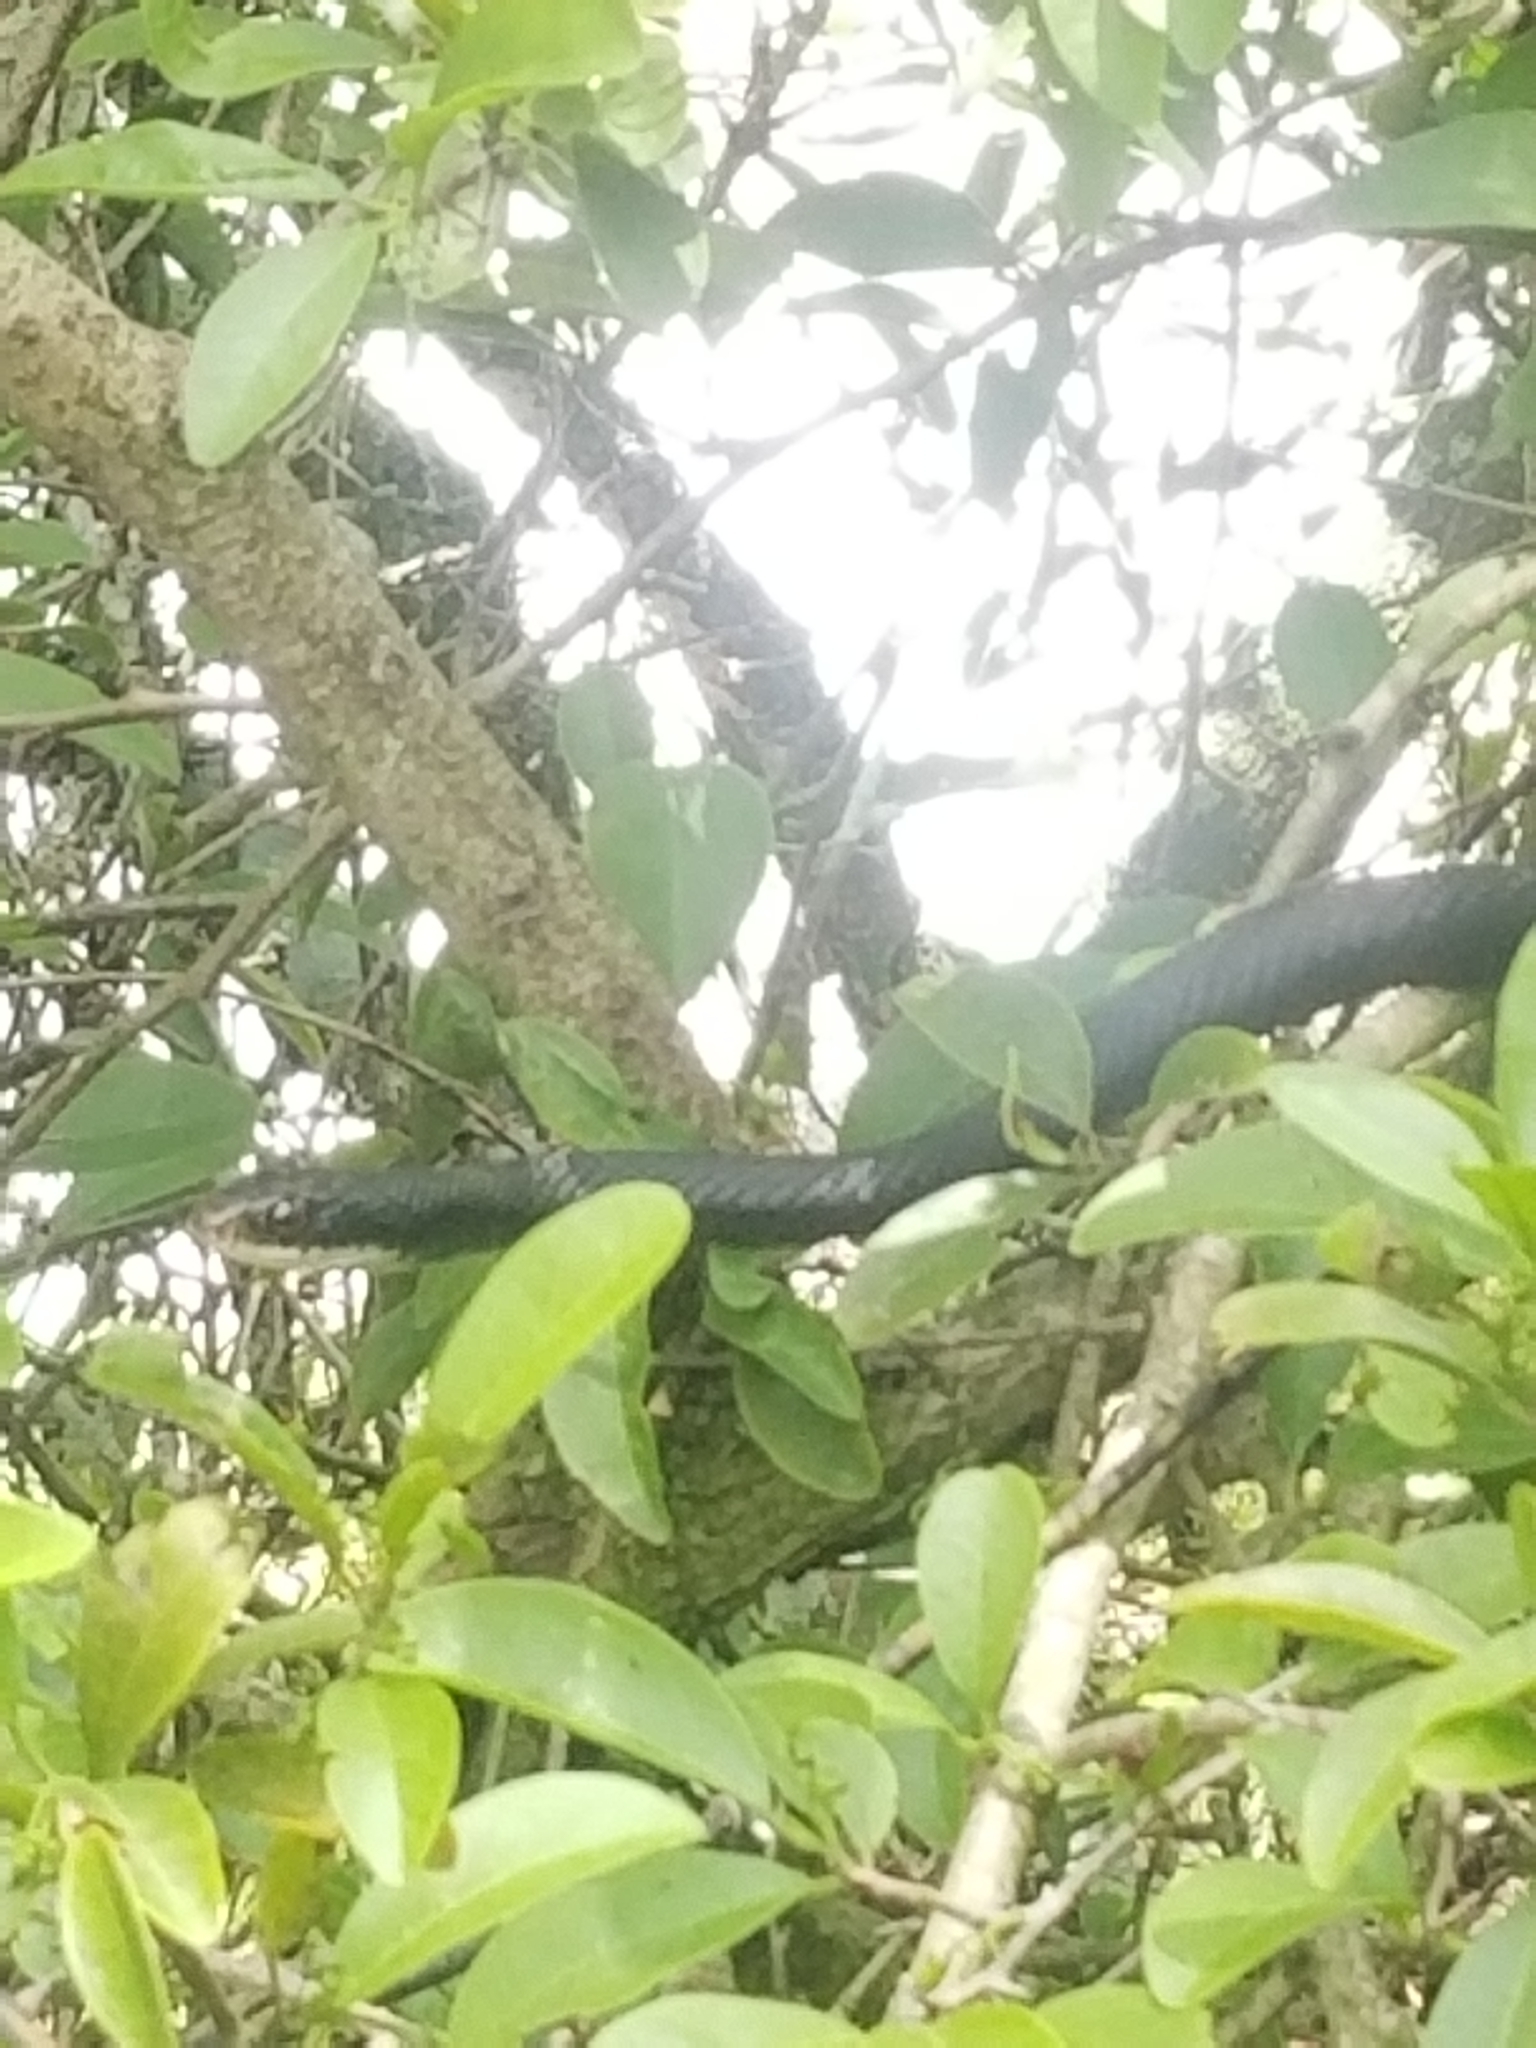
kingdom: Animalia
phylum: Chordata
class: Squamata
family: Colubridae
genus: Coluber
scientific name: Coluber constrictor
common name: Eastern racer
